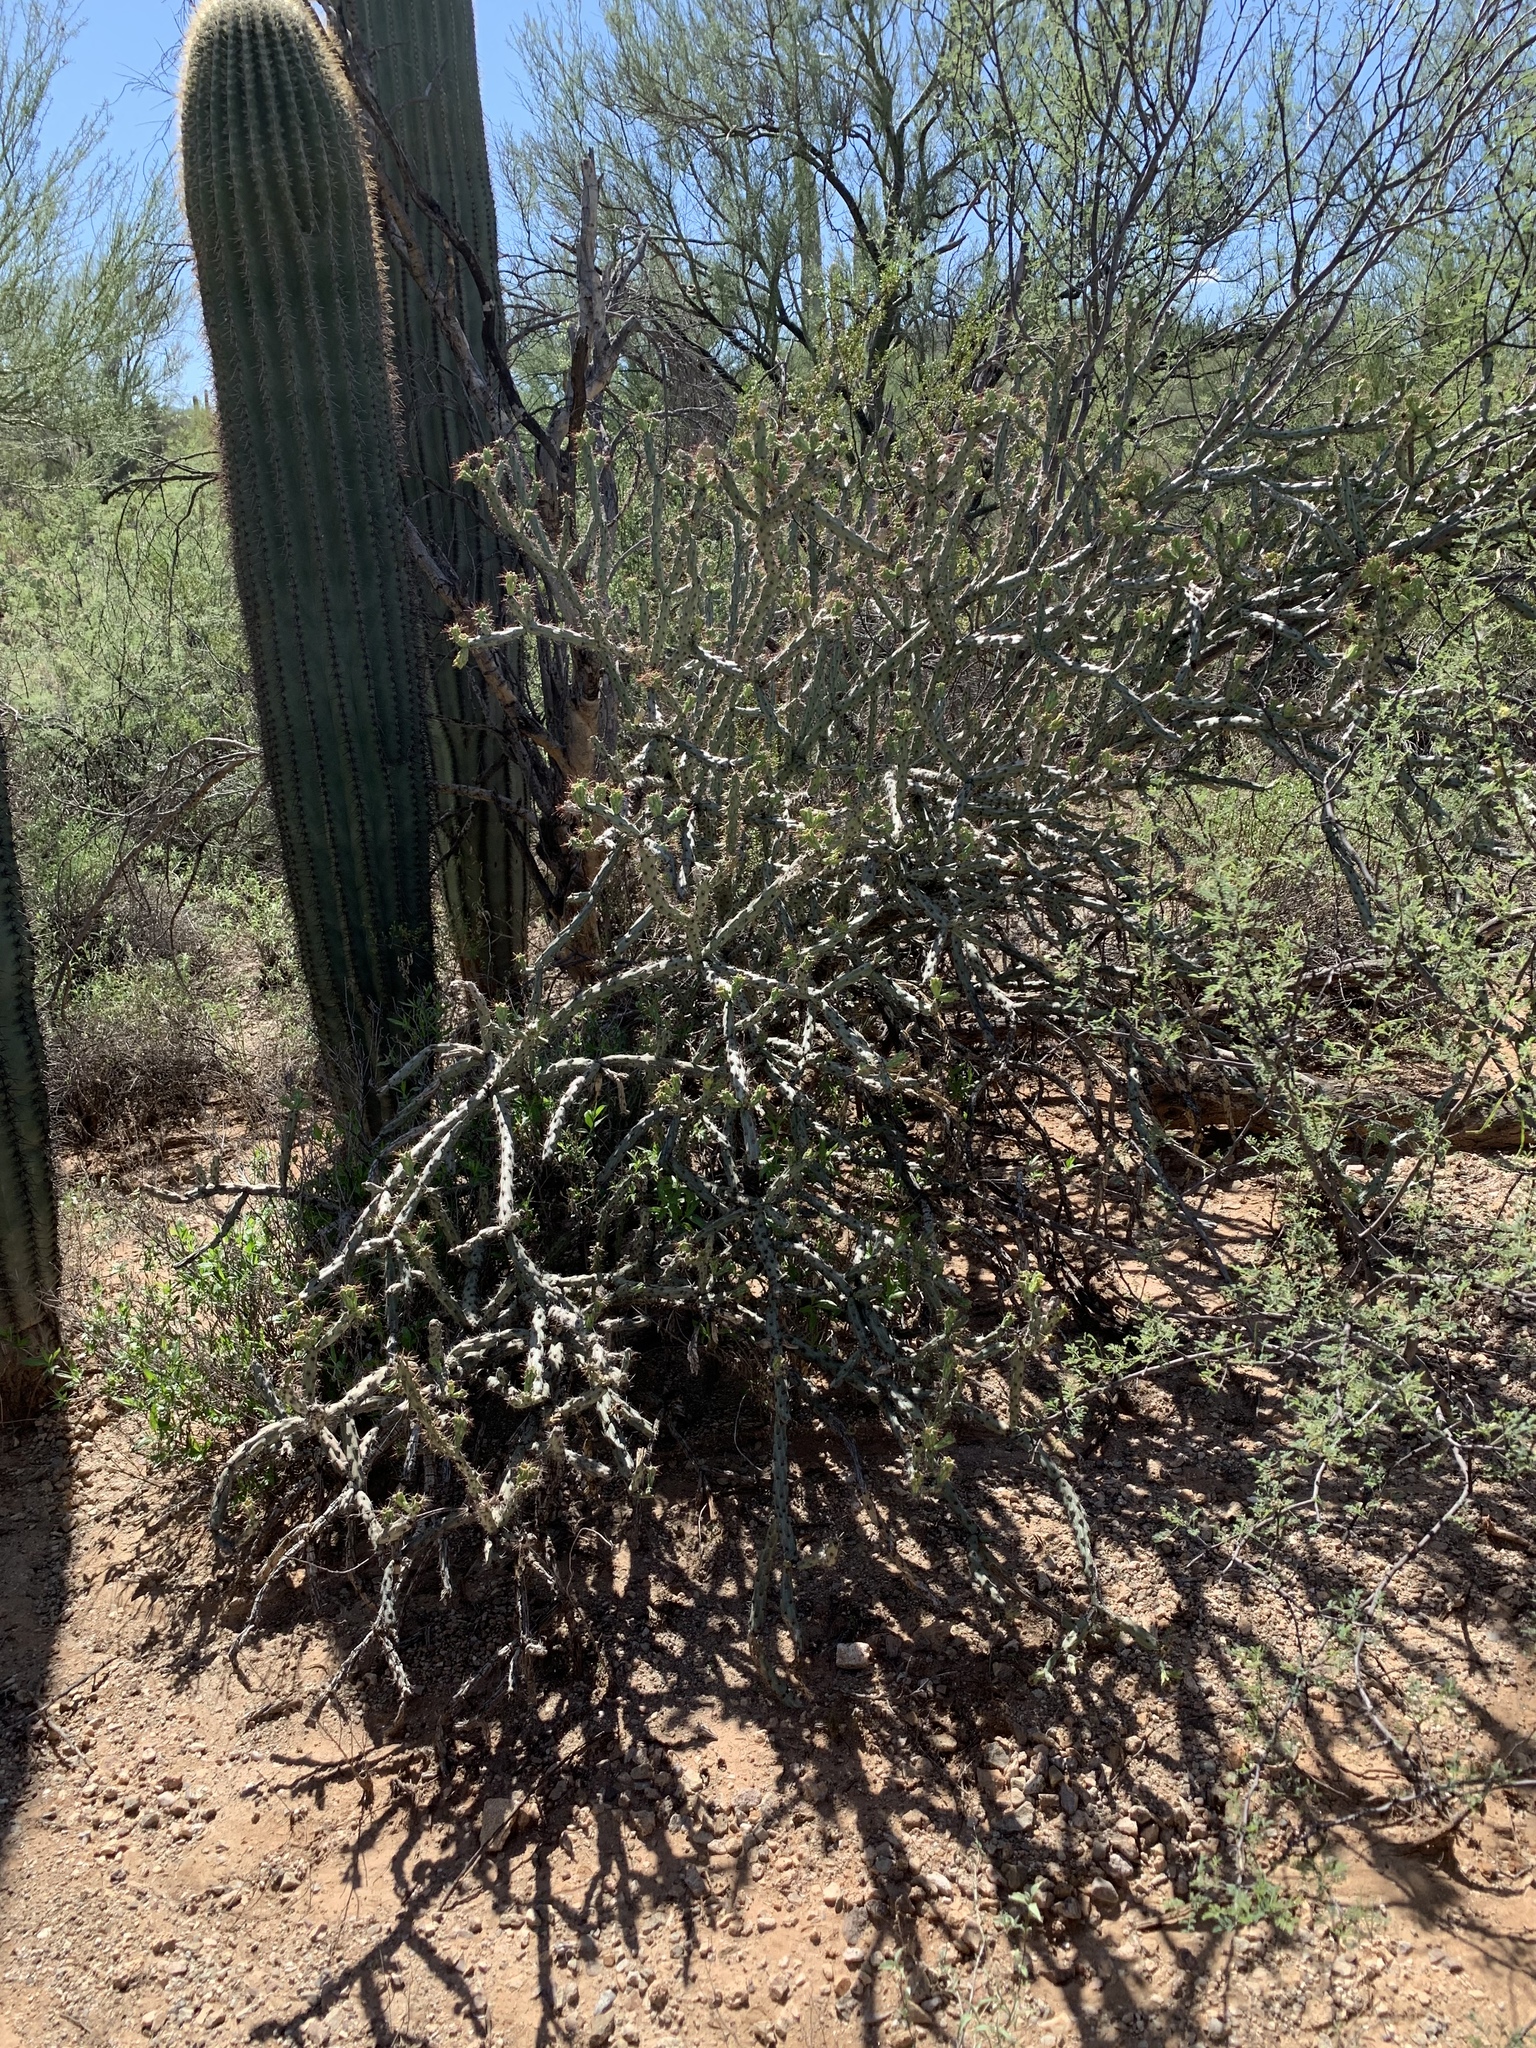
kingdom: Plantae
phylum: Tracheophyta
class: Magnoliopsida
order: Caryophyllales
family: Cactaceae
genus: Cylindropuntia
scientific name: Cylindropuntia thurberi
